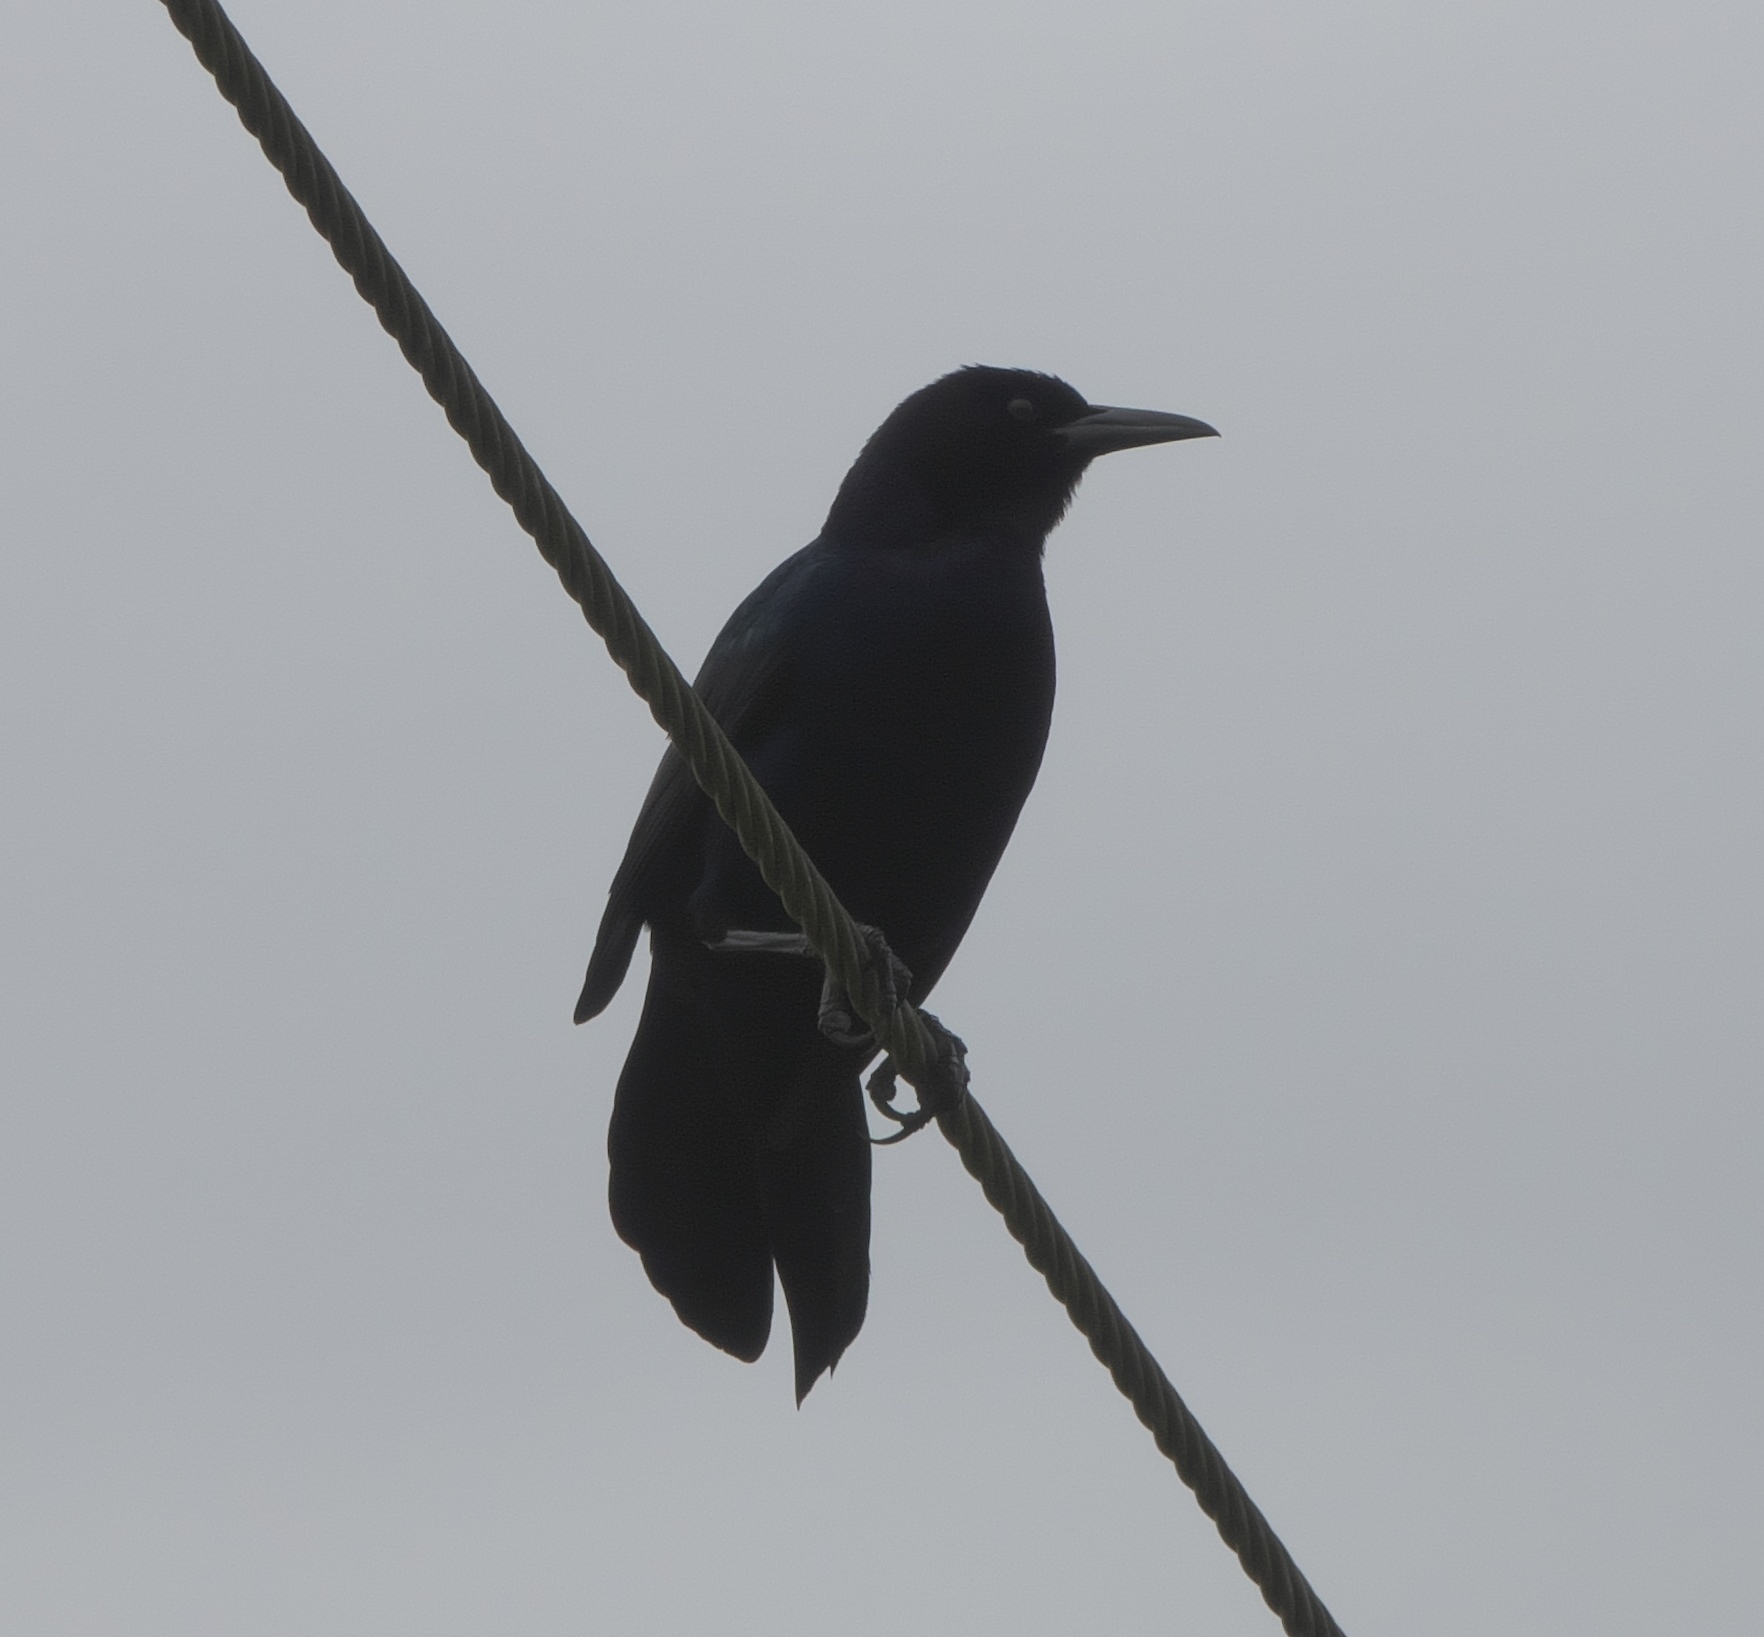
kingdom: Animalia
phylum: Chordata
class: Aves
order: Passeriformes
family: Icteridae
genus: Quiscalus
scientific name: Quiscalus major
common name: Boat-tailed grackle
